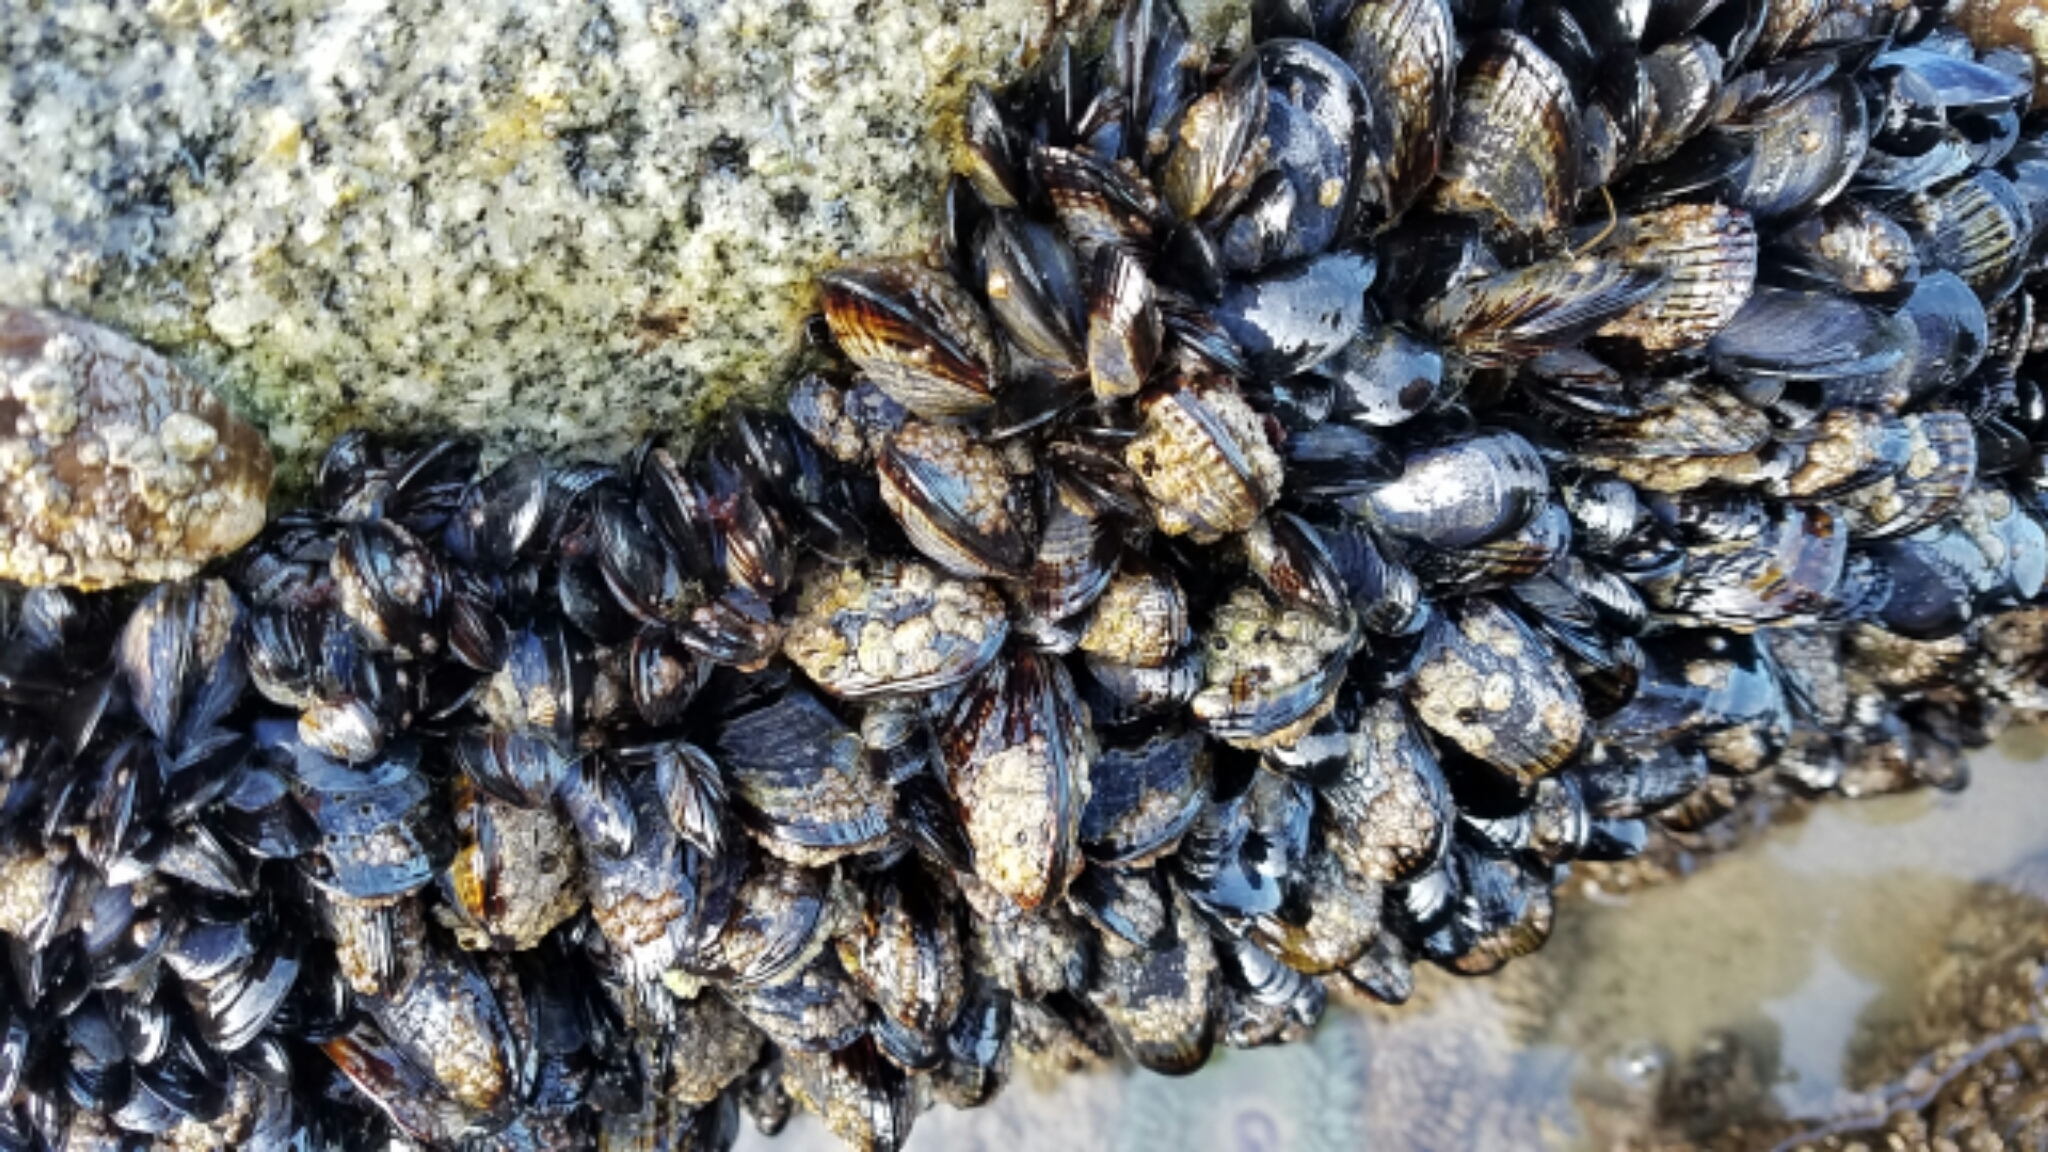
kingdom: Animalia
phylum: Mollusca
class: Bivalvia
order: Mytilida
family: Mytilidae
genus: Mytilus
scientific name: Mytilus californianus
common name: California mussel
